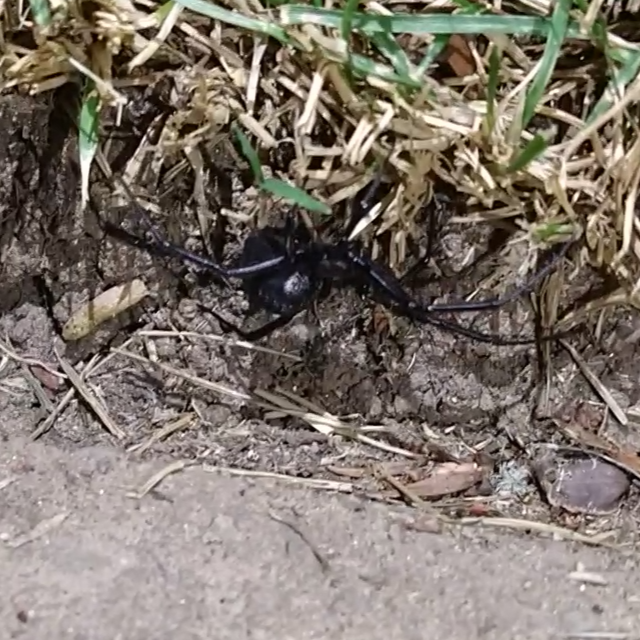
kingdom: Animalia
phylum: Arthropoda
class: Arachnida
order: Araneae
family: Theridiidae
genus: Latrodectus
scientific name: Latrodectus hesperus
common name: Western black widow
